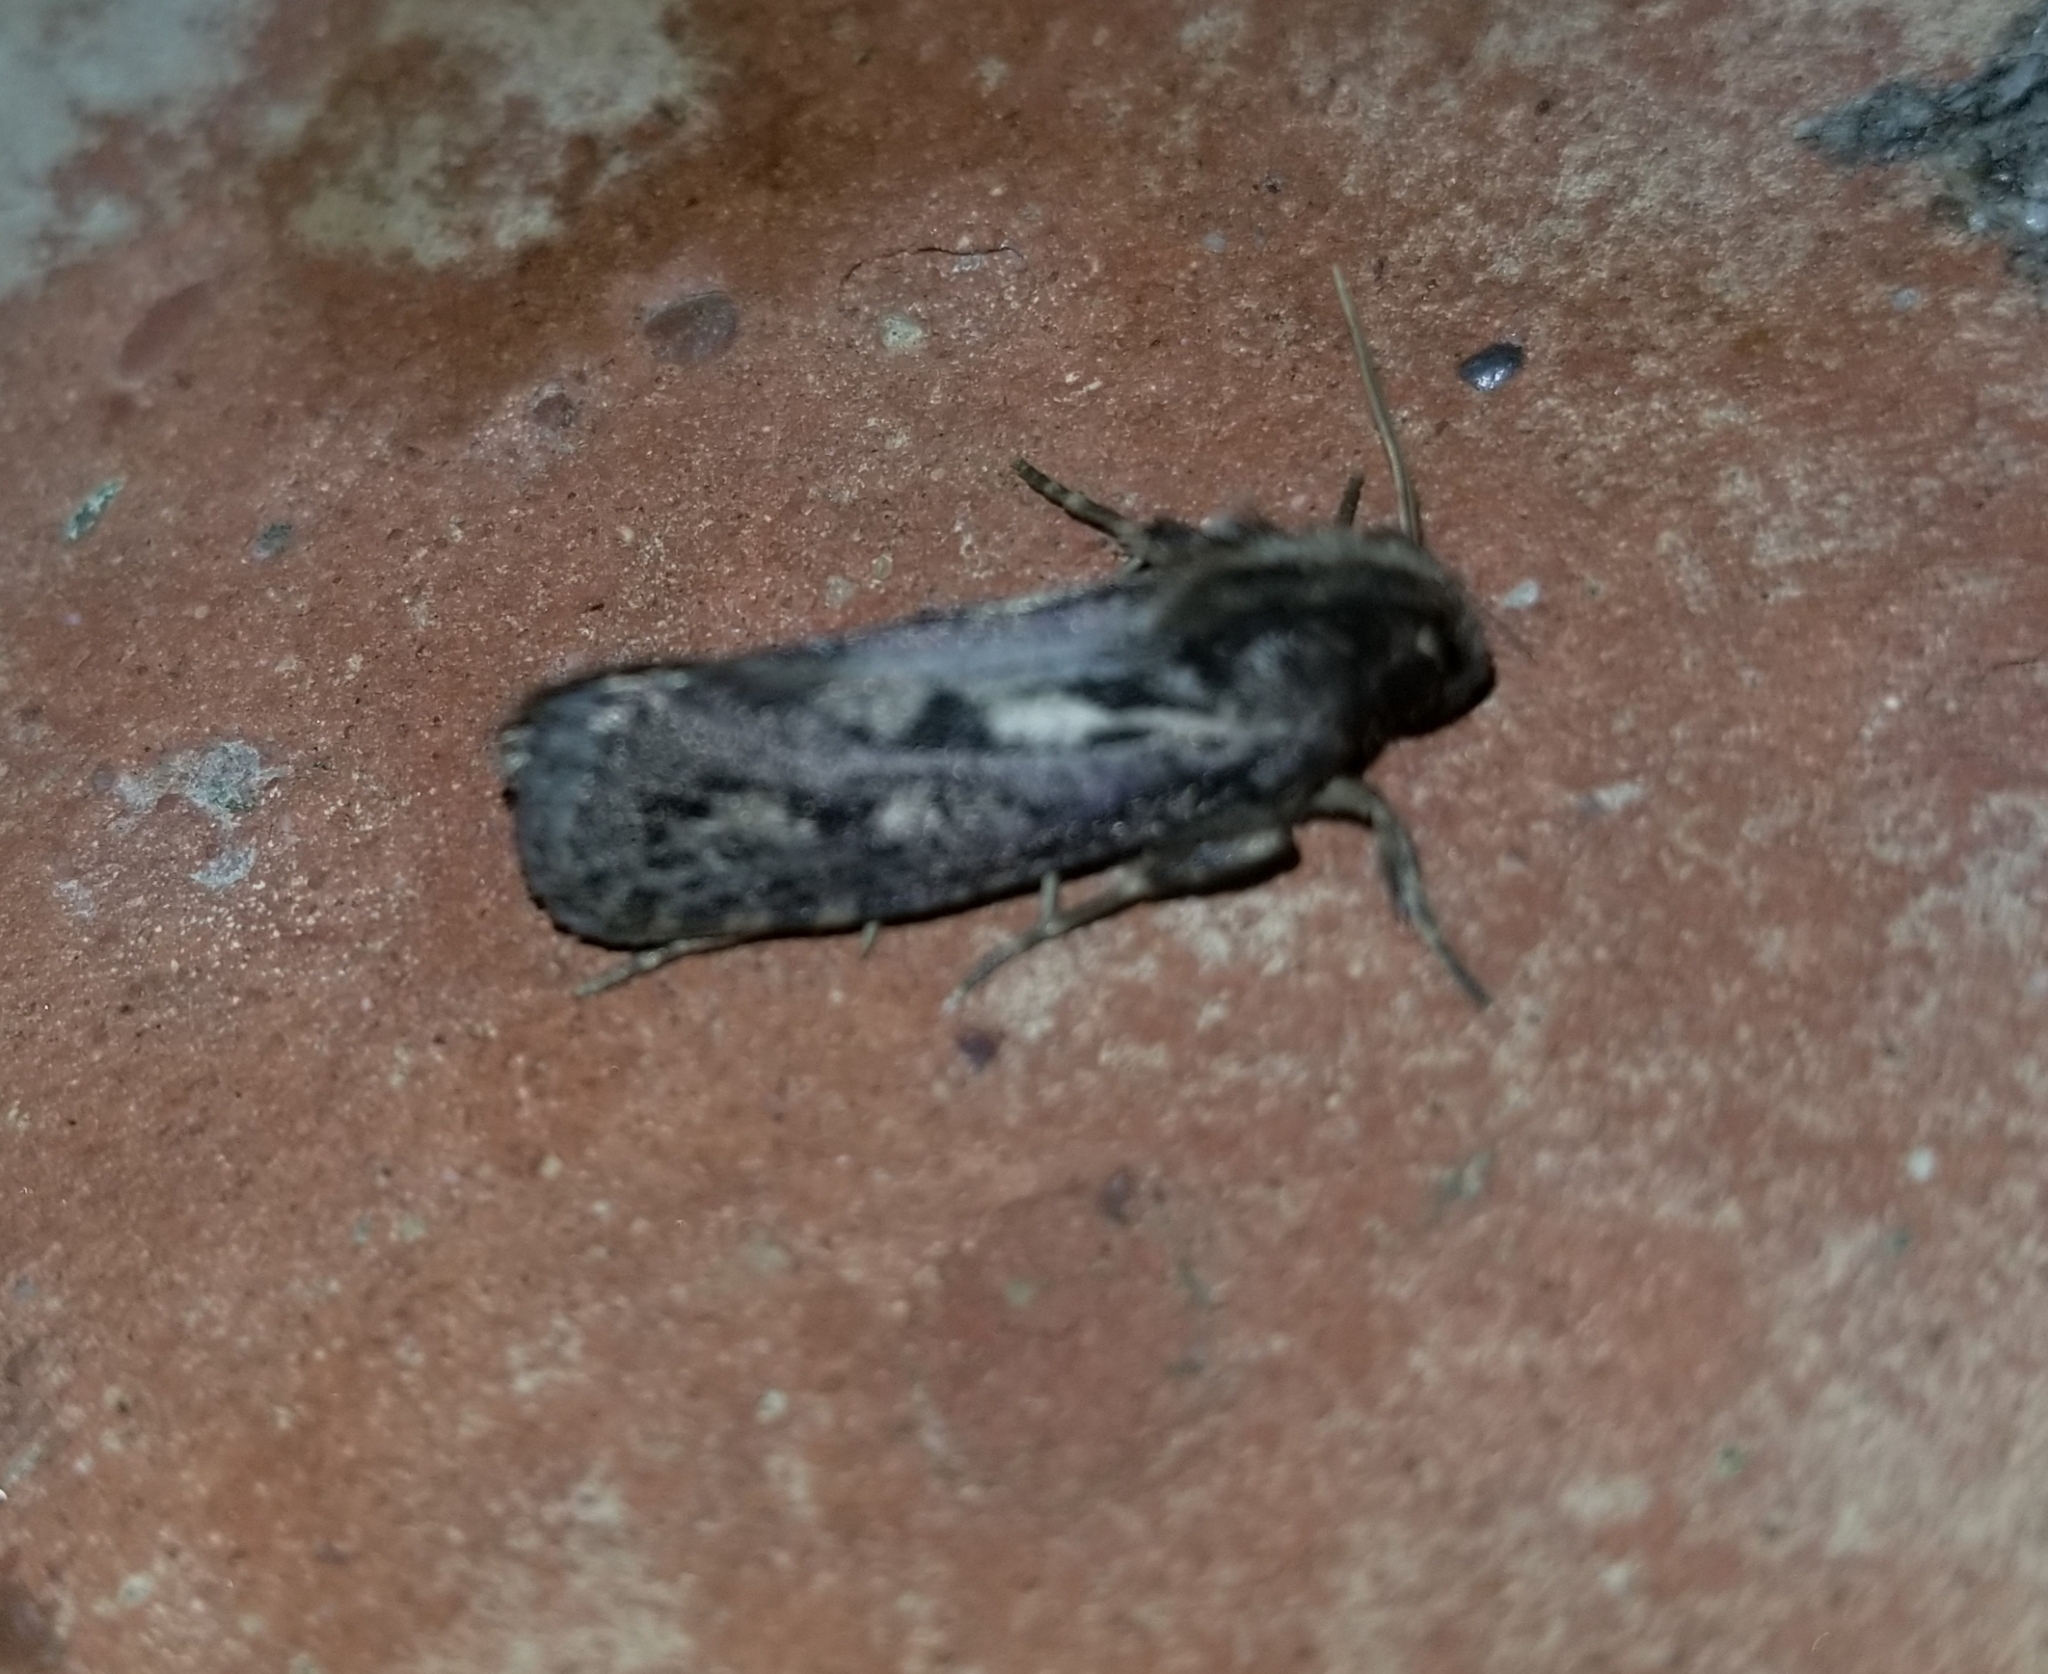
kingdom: Animalia
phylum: Arthropoda
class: Insecta
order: Lepidoptera
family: Tineidae
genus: Acrolophus
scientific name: Acrolophus popeanella
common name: Clemens' grass tubeworm moth
